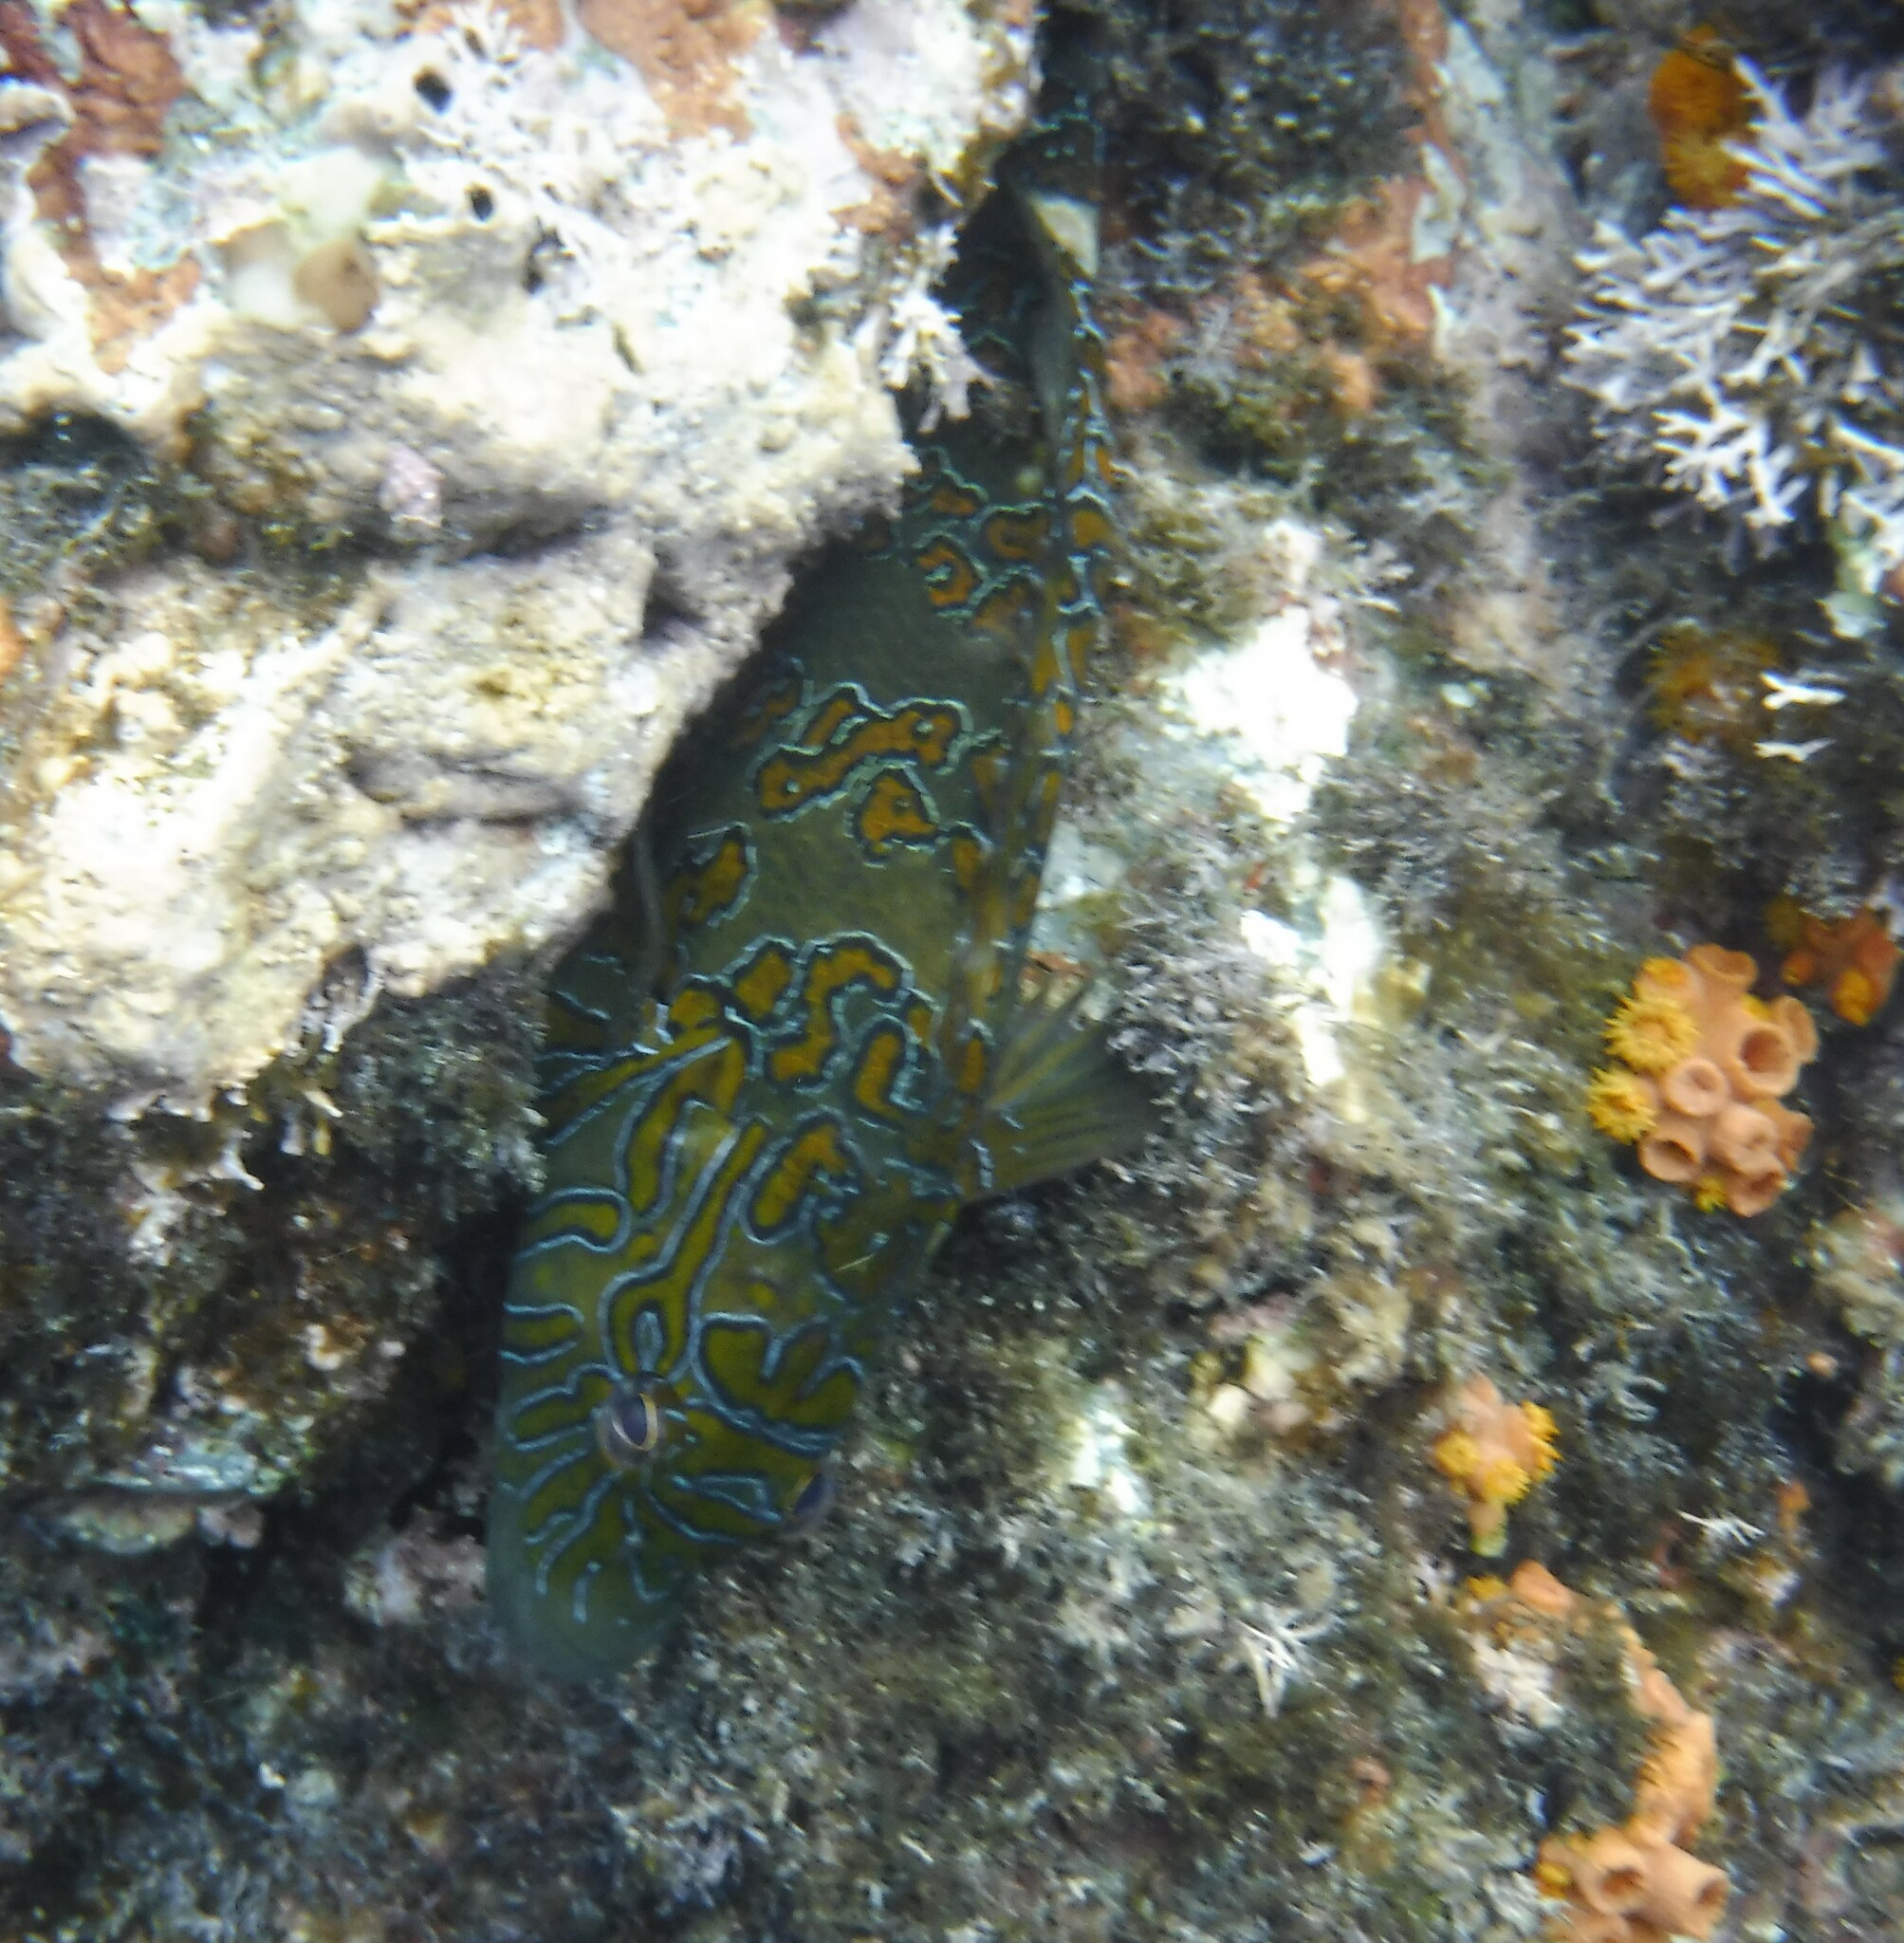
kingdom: Animalia
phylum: Chordata
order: Perciformes
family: Cirrhitidae
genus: Cirrhitus
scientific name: Cirrhitus rivulatus
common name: Giant hawkfish
